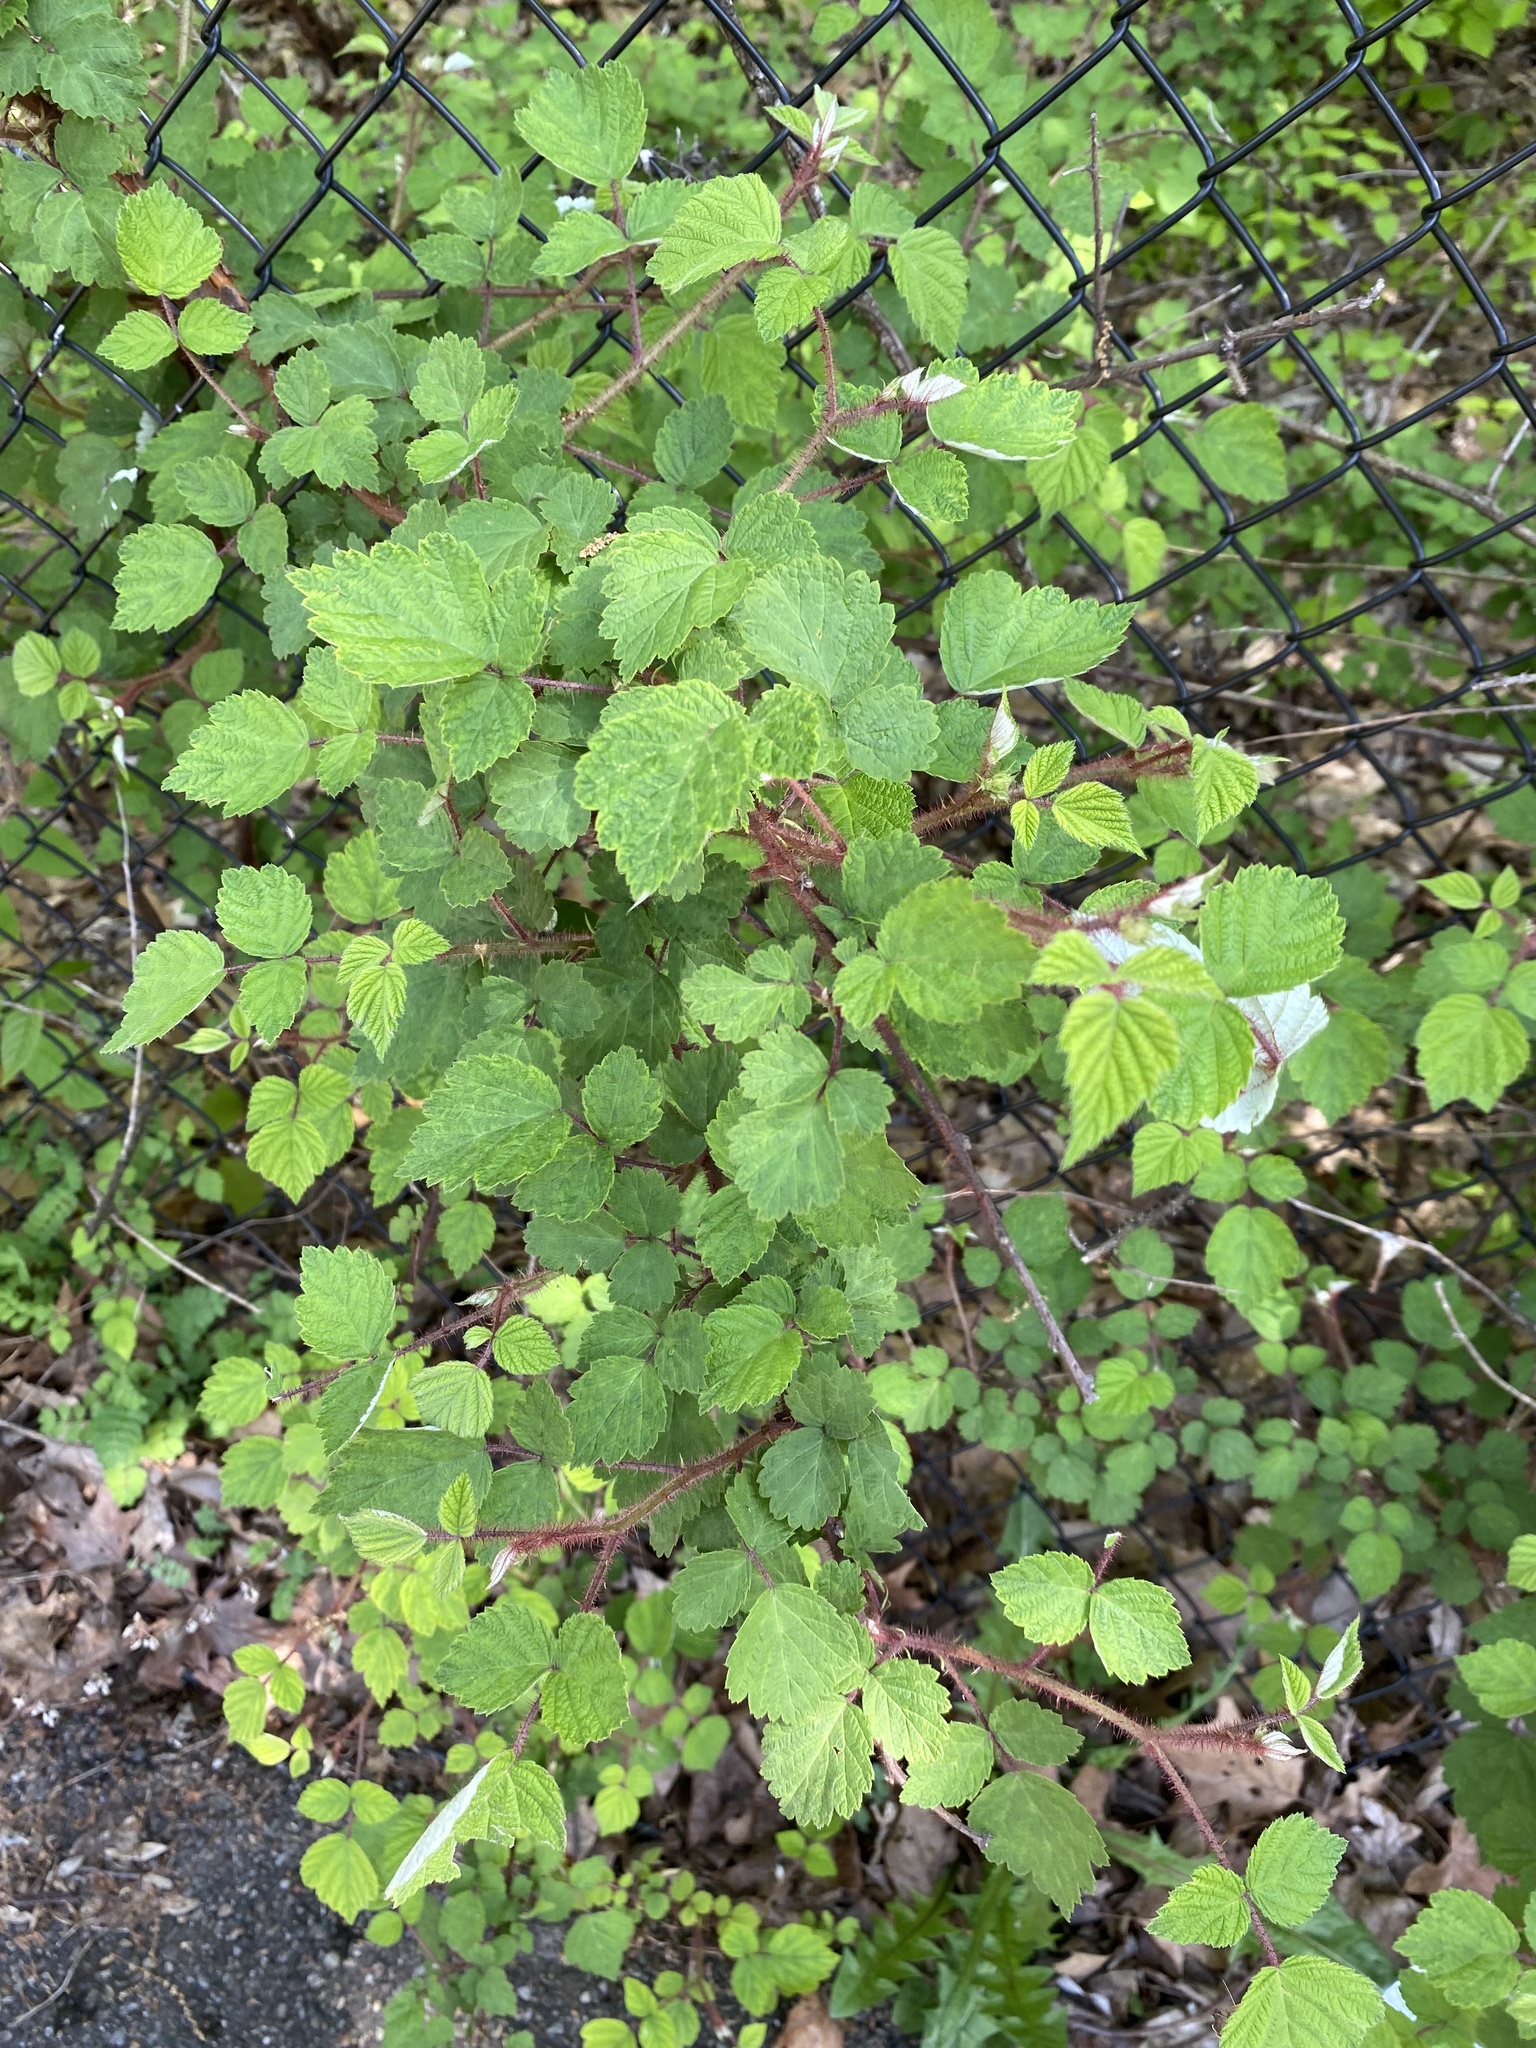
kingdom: Plantae
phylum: Tracheophyta
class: Magnoliopsida
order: Rosales
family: Rosaceae
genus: Rubus
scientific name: Rubus phoenicolasius
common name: Japanese wineberry
